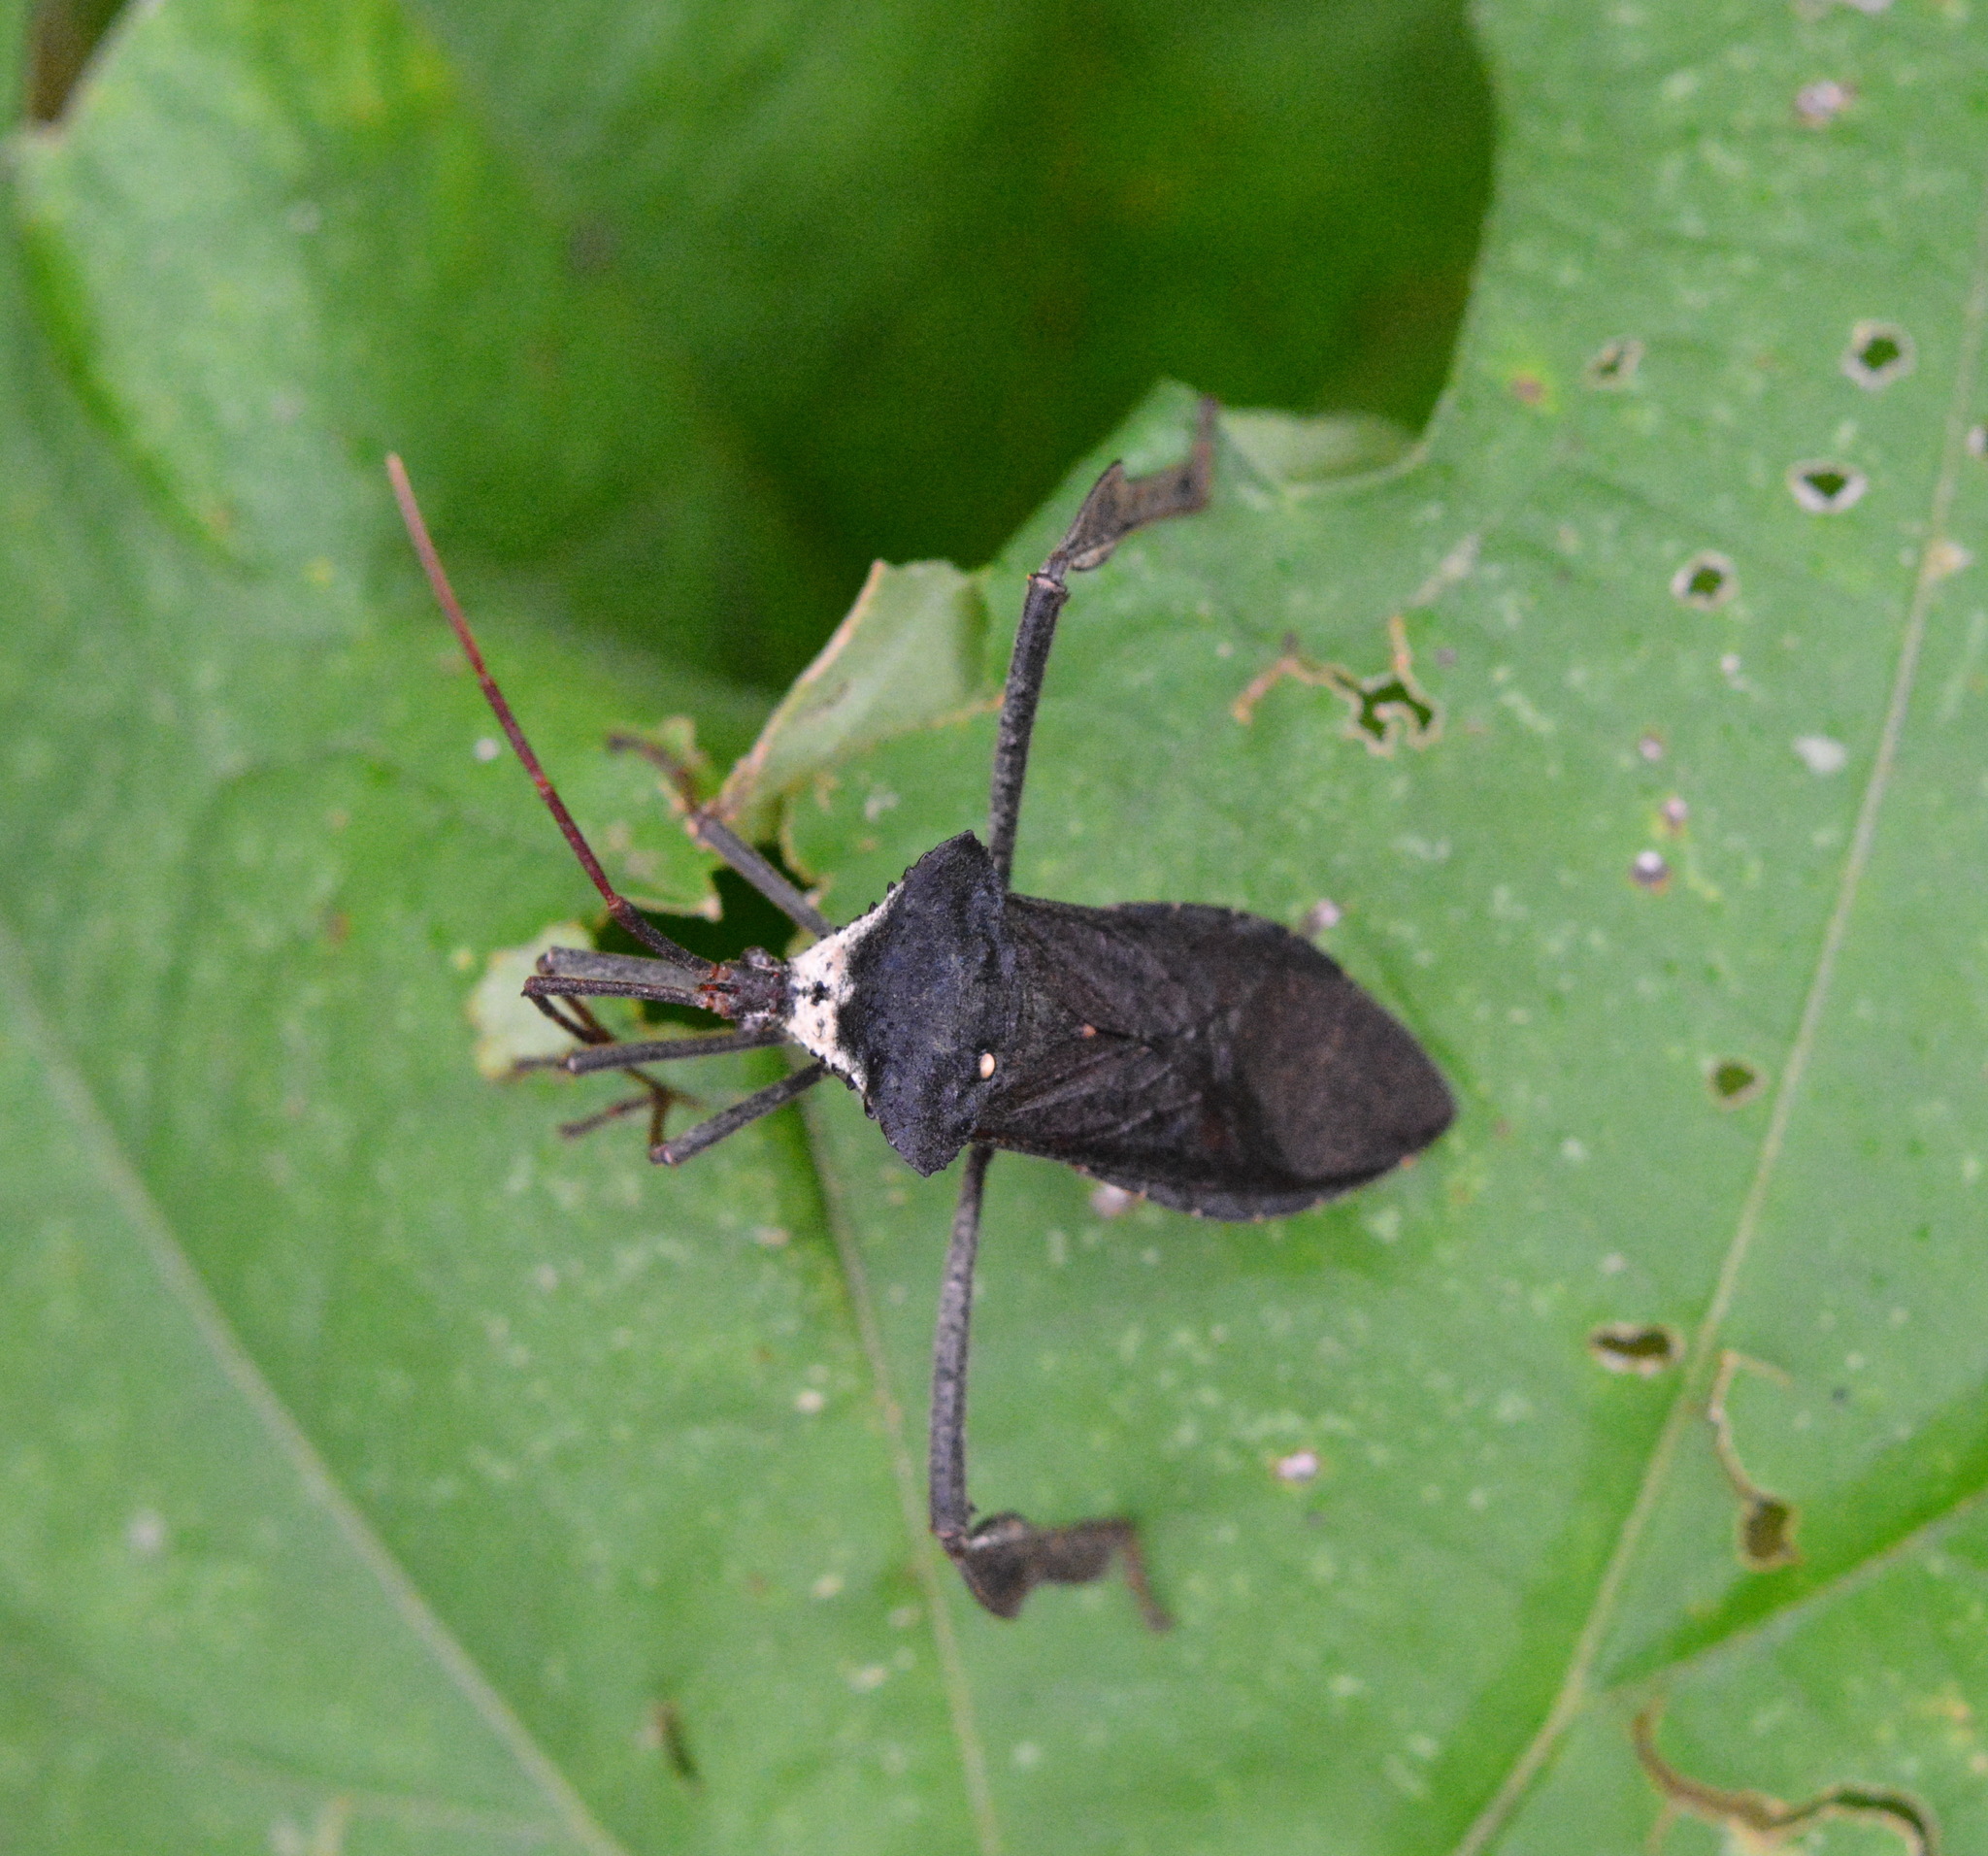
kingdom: Animalia
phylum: Arthropoda
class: Insecta
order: Hemiptera
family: Coreidae
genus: Acanthocephala
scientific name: Acanthocephala declivis
